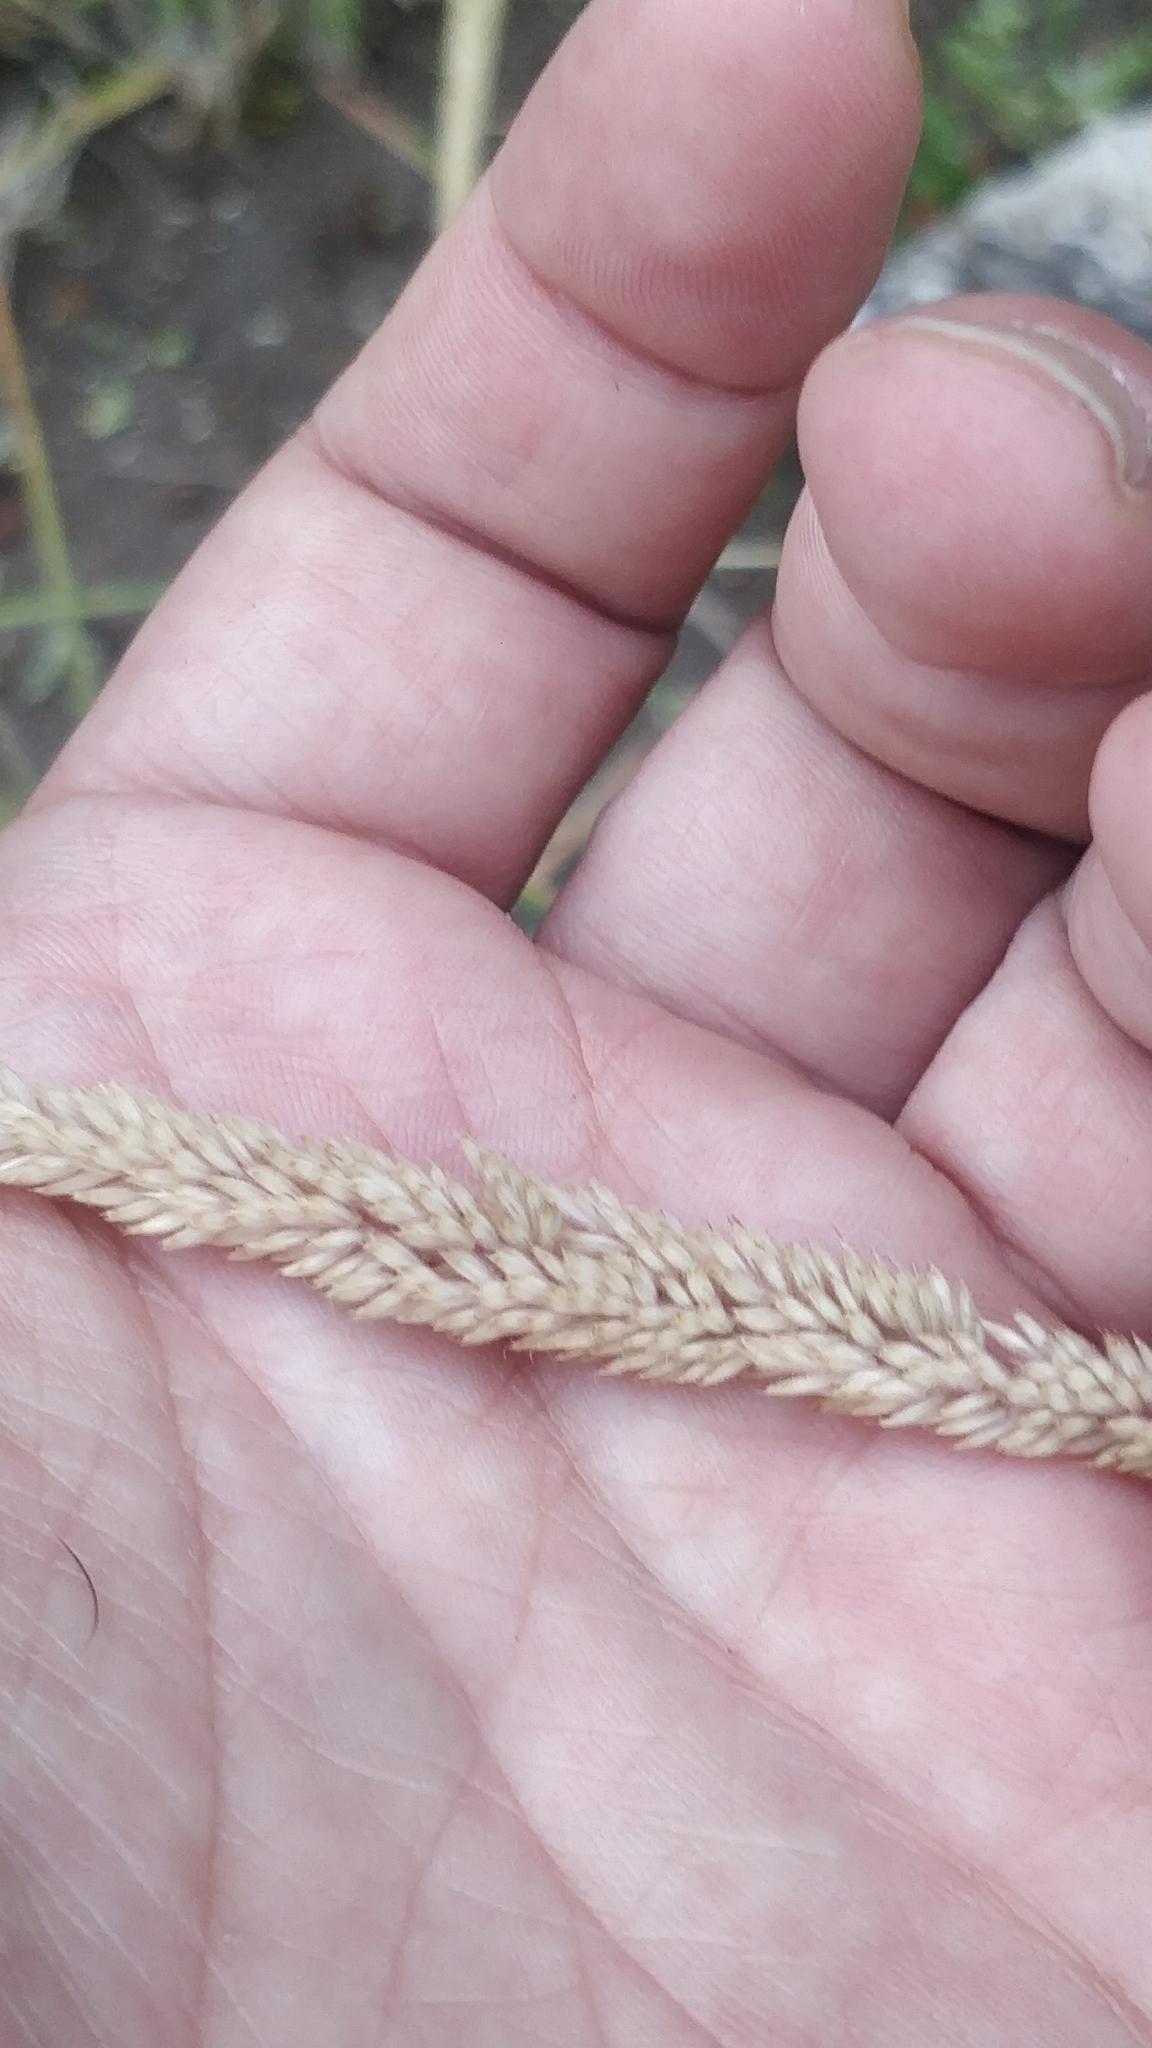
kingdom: Plantae
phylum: Tracheophyta
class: Liliopsida
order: Poales
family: Poaceae
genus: Holcus
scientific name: Holcus lanatus
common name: Yorkshire-fog
